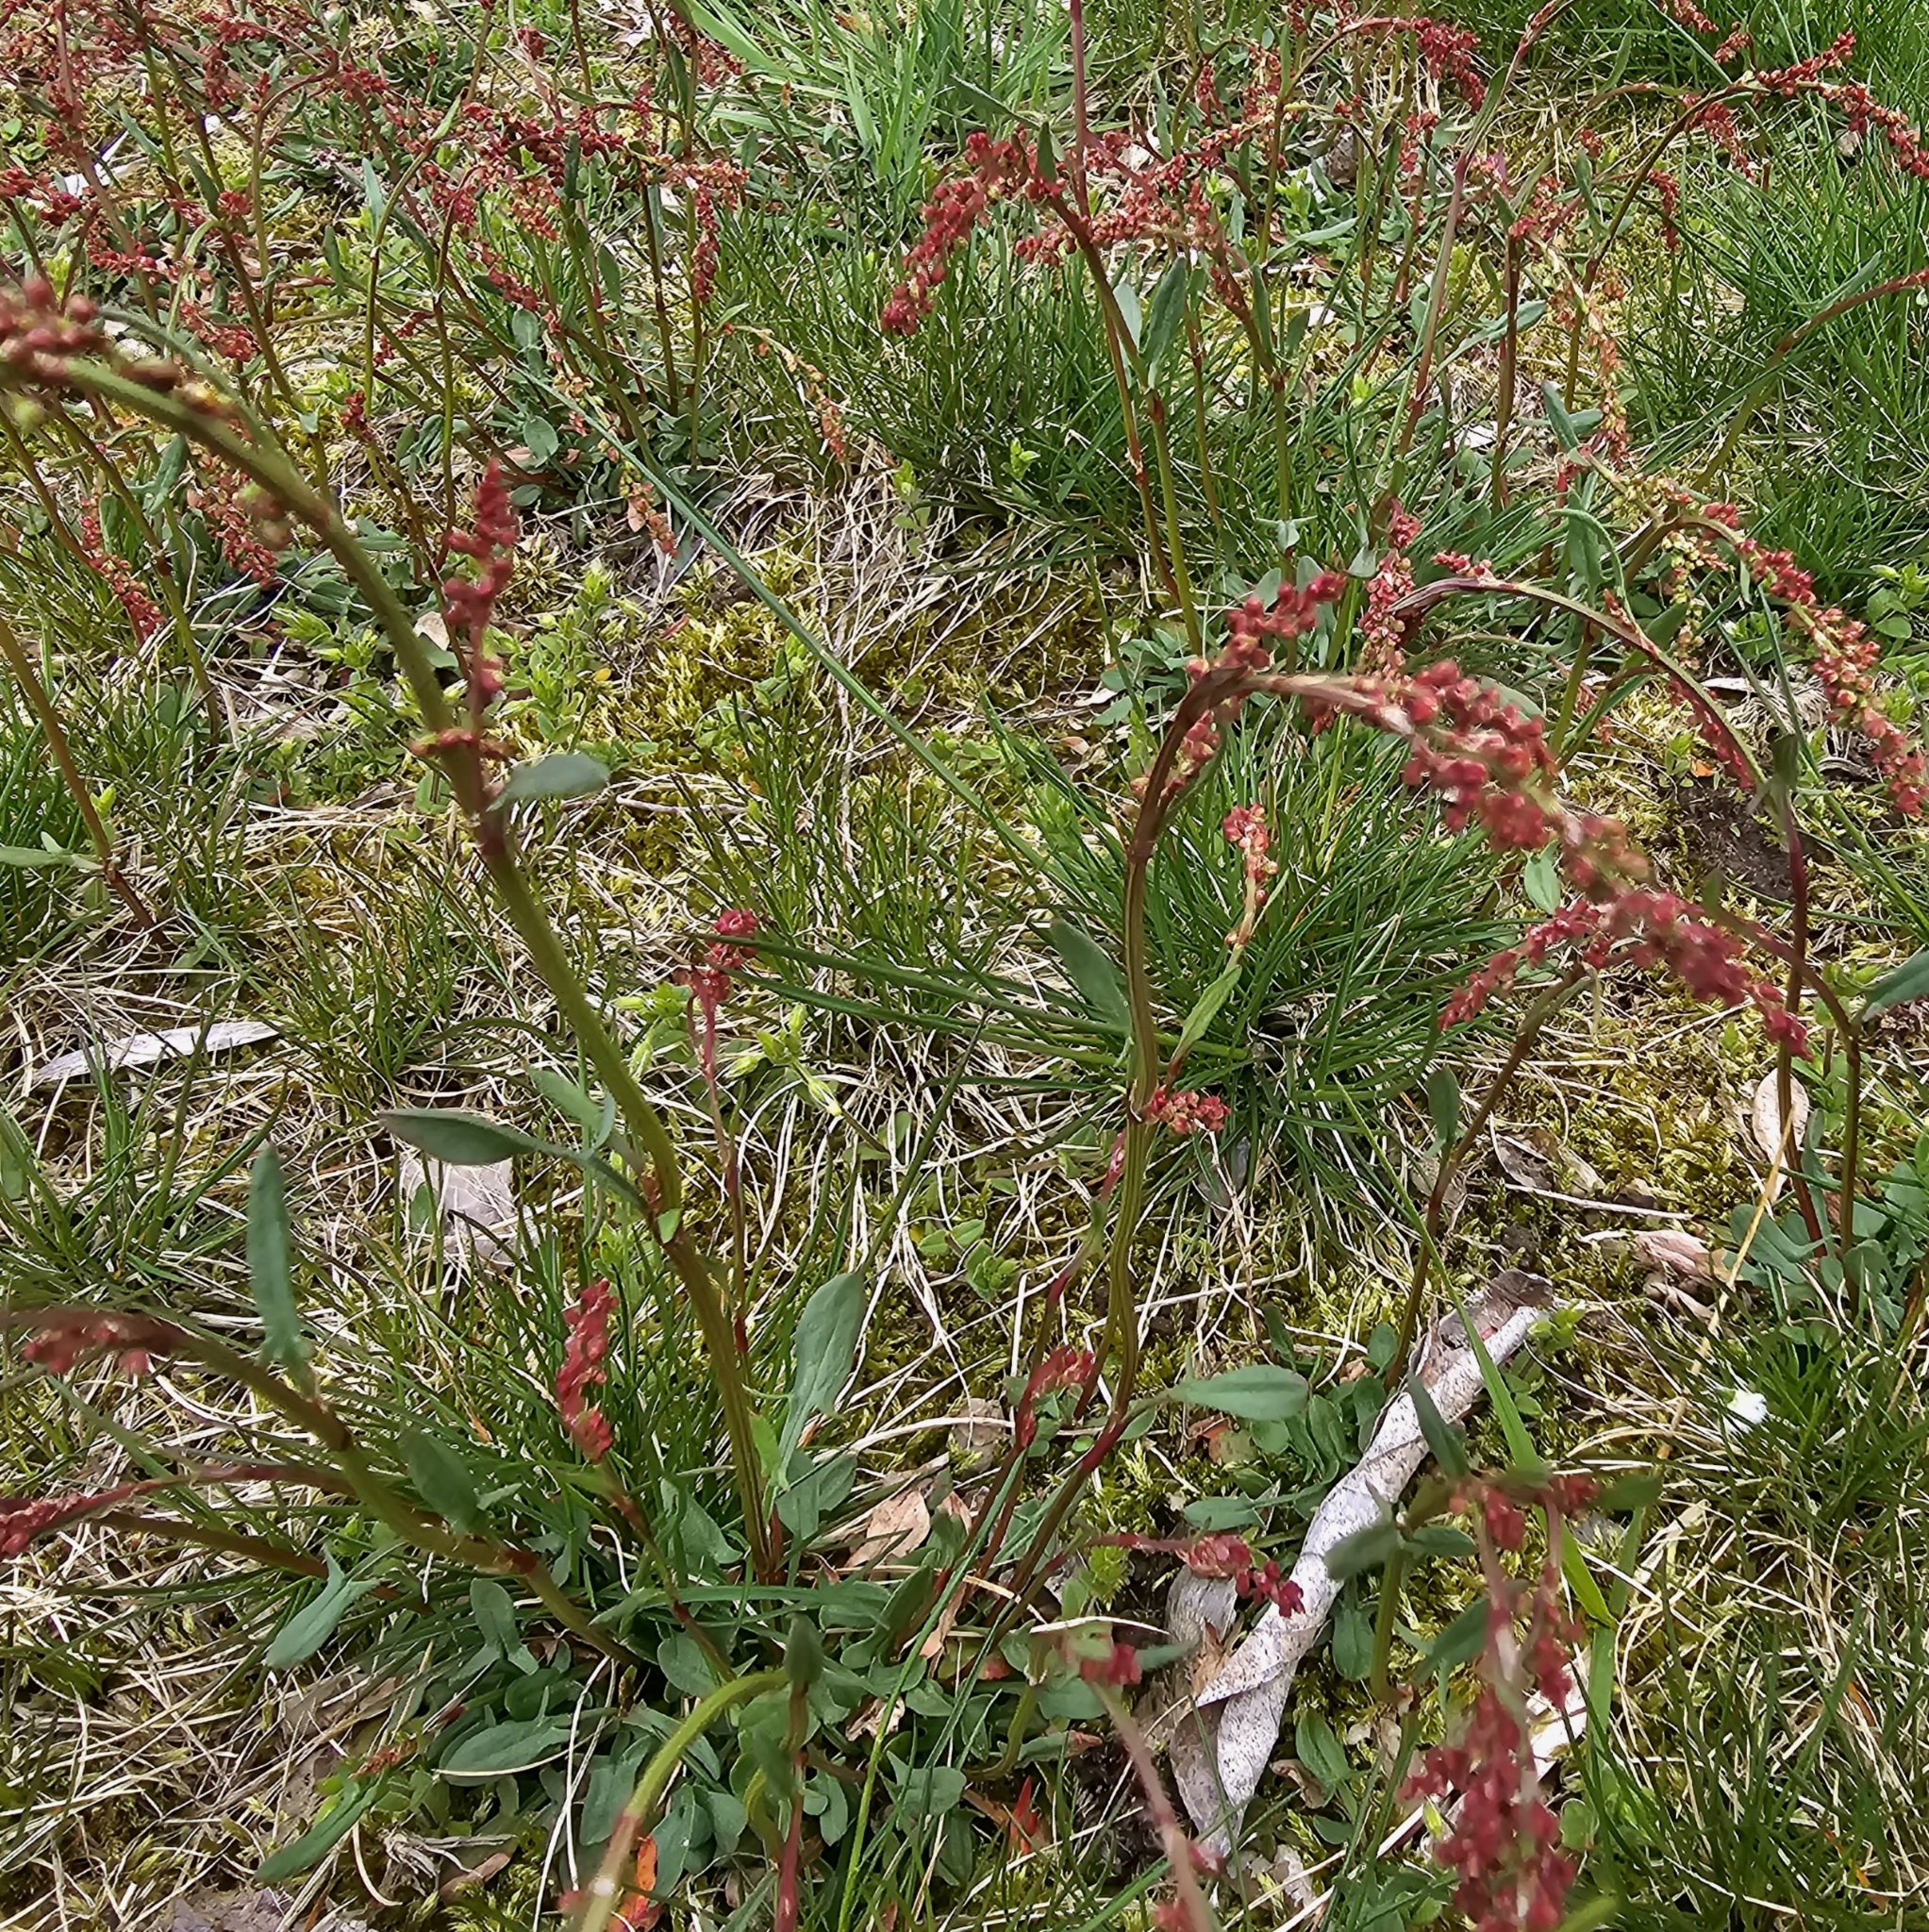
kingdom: Plantae
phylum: Tracheophyta
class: Magnoliopsida
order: Caryophyllales
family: Polygonaceae
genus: Rumex
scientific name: Rumex acetosella
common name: Common sheep sorrel
